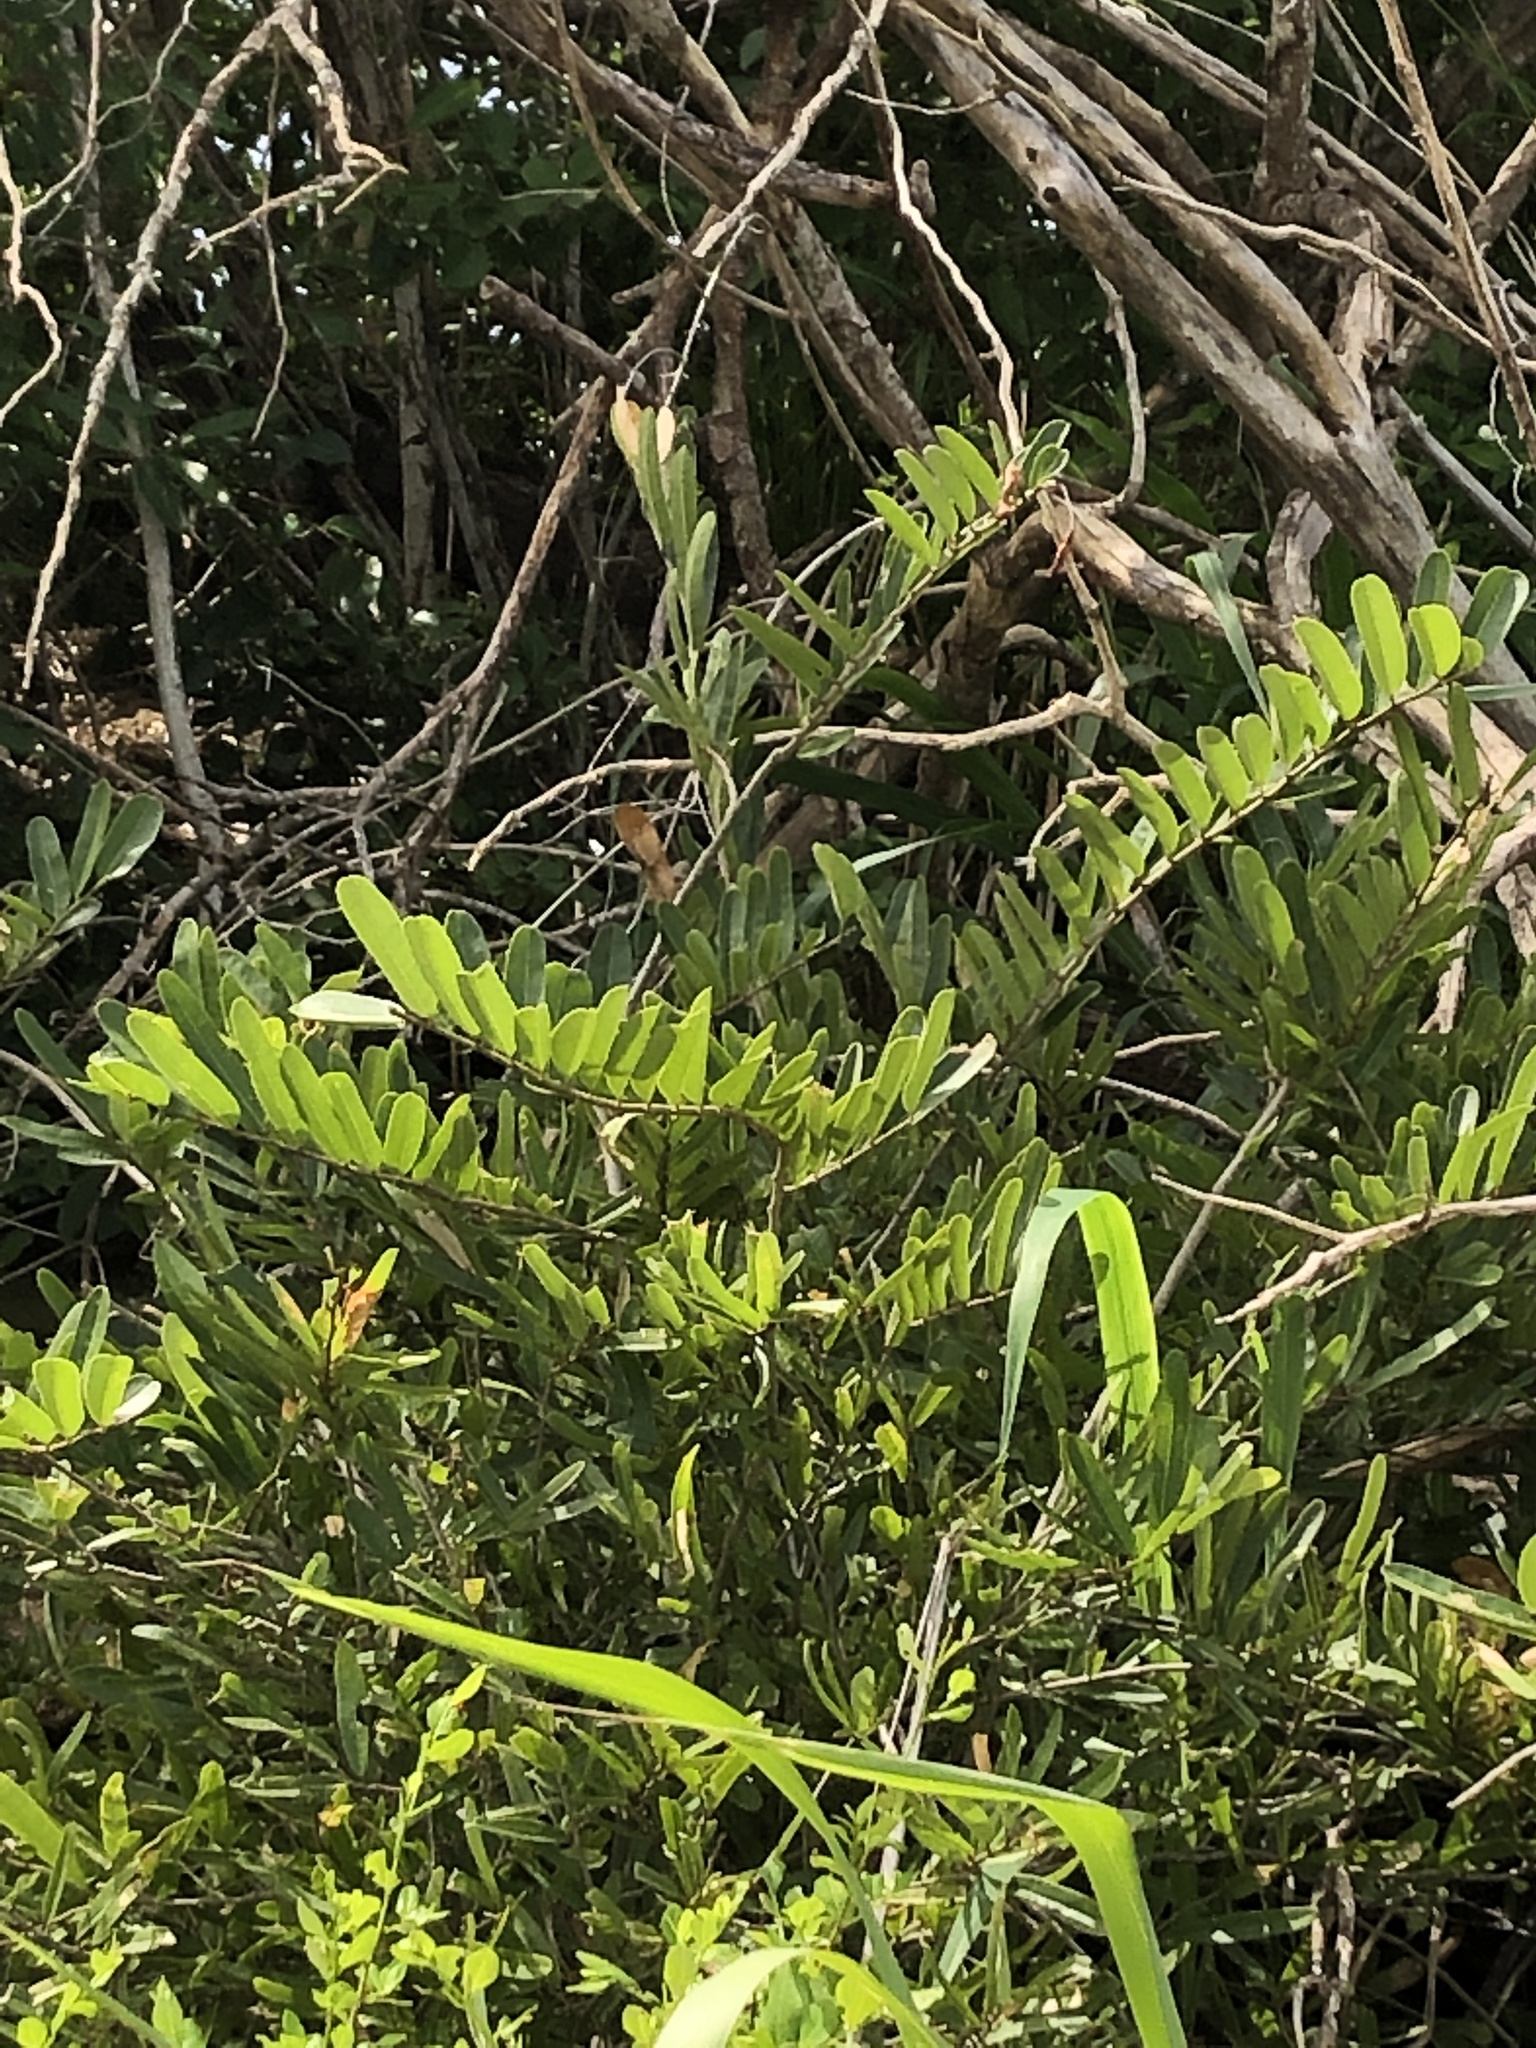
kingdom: Plantae
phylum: Tracheophyta
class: Magnoliopsida
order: Brassicales
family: Capparaceae
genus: Cynophalla
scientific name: Cynophalla flexuosa
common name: Capertree
